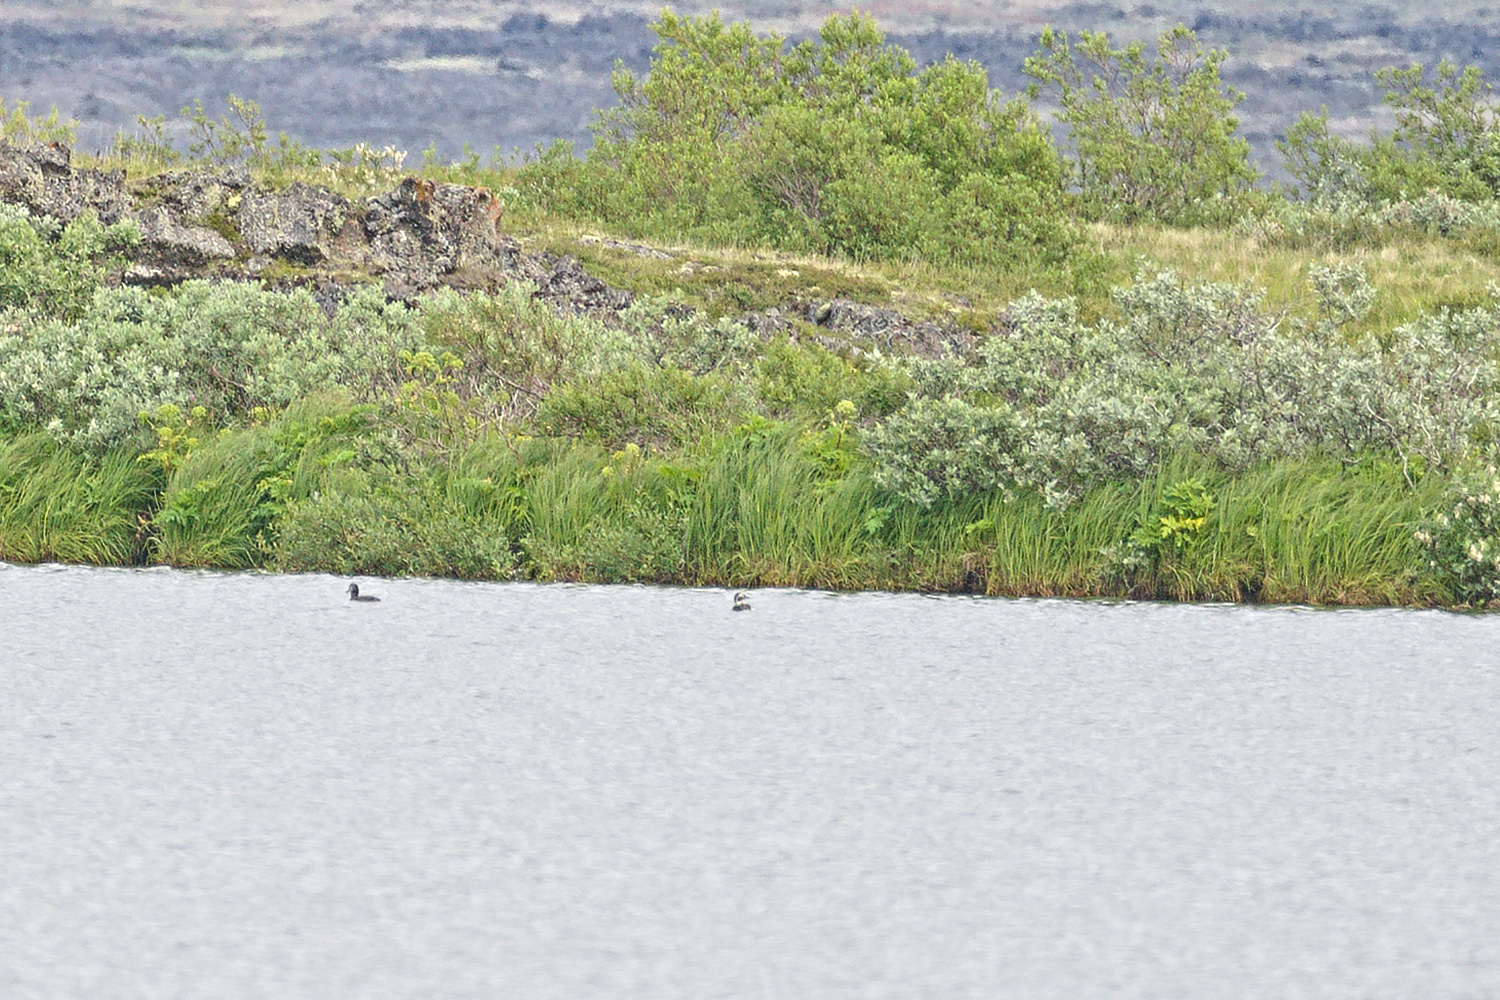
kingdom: Animalia
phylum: Chordata
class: Aves
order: Anseriformes
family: Anatidae
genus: Clangula
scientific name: Clangula hyemalis
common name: Long-tailed duck
